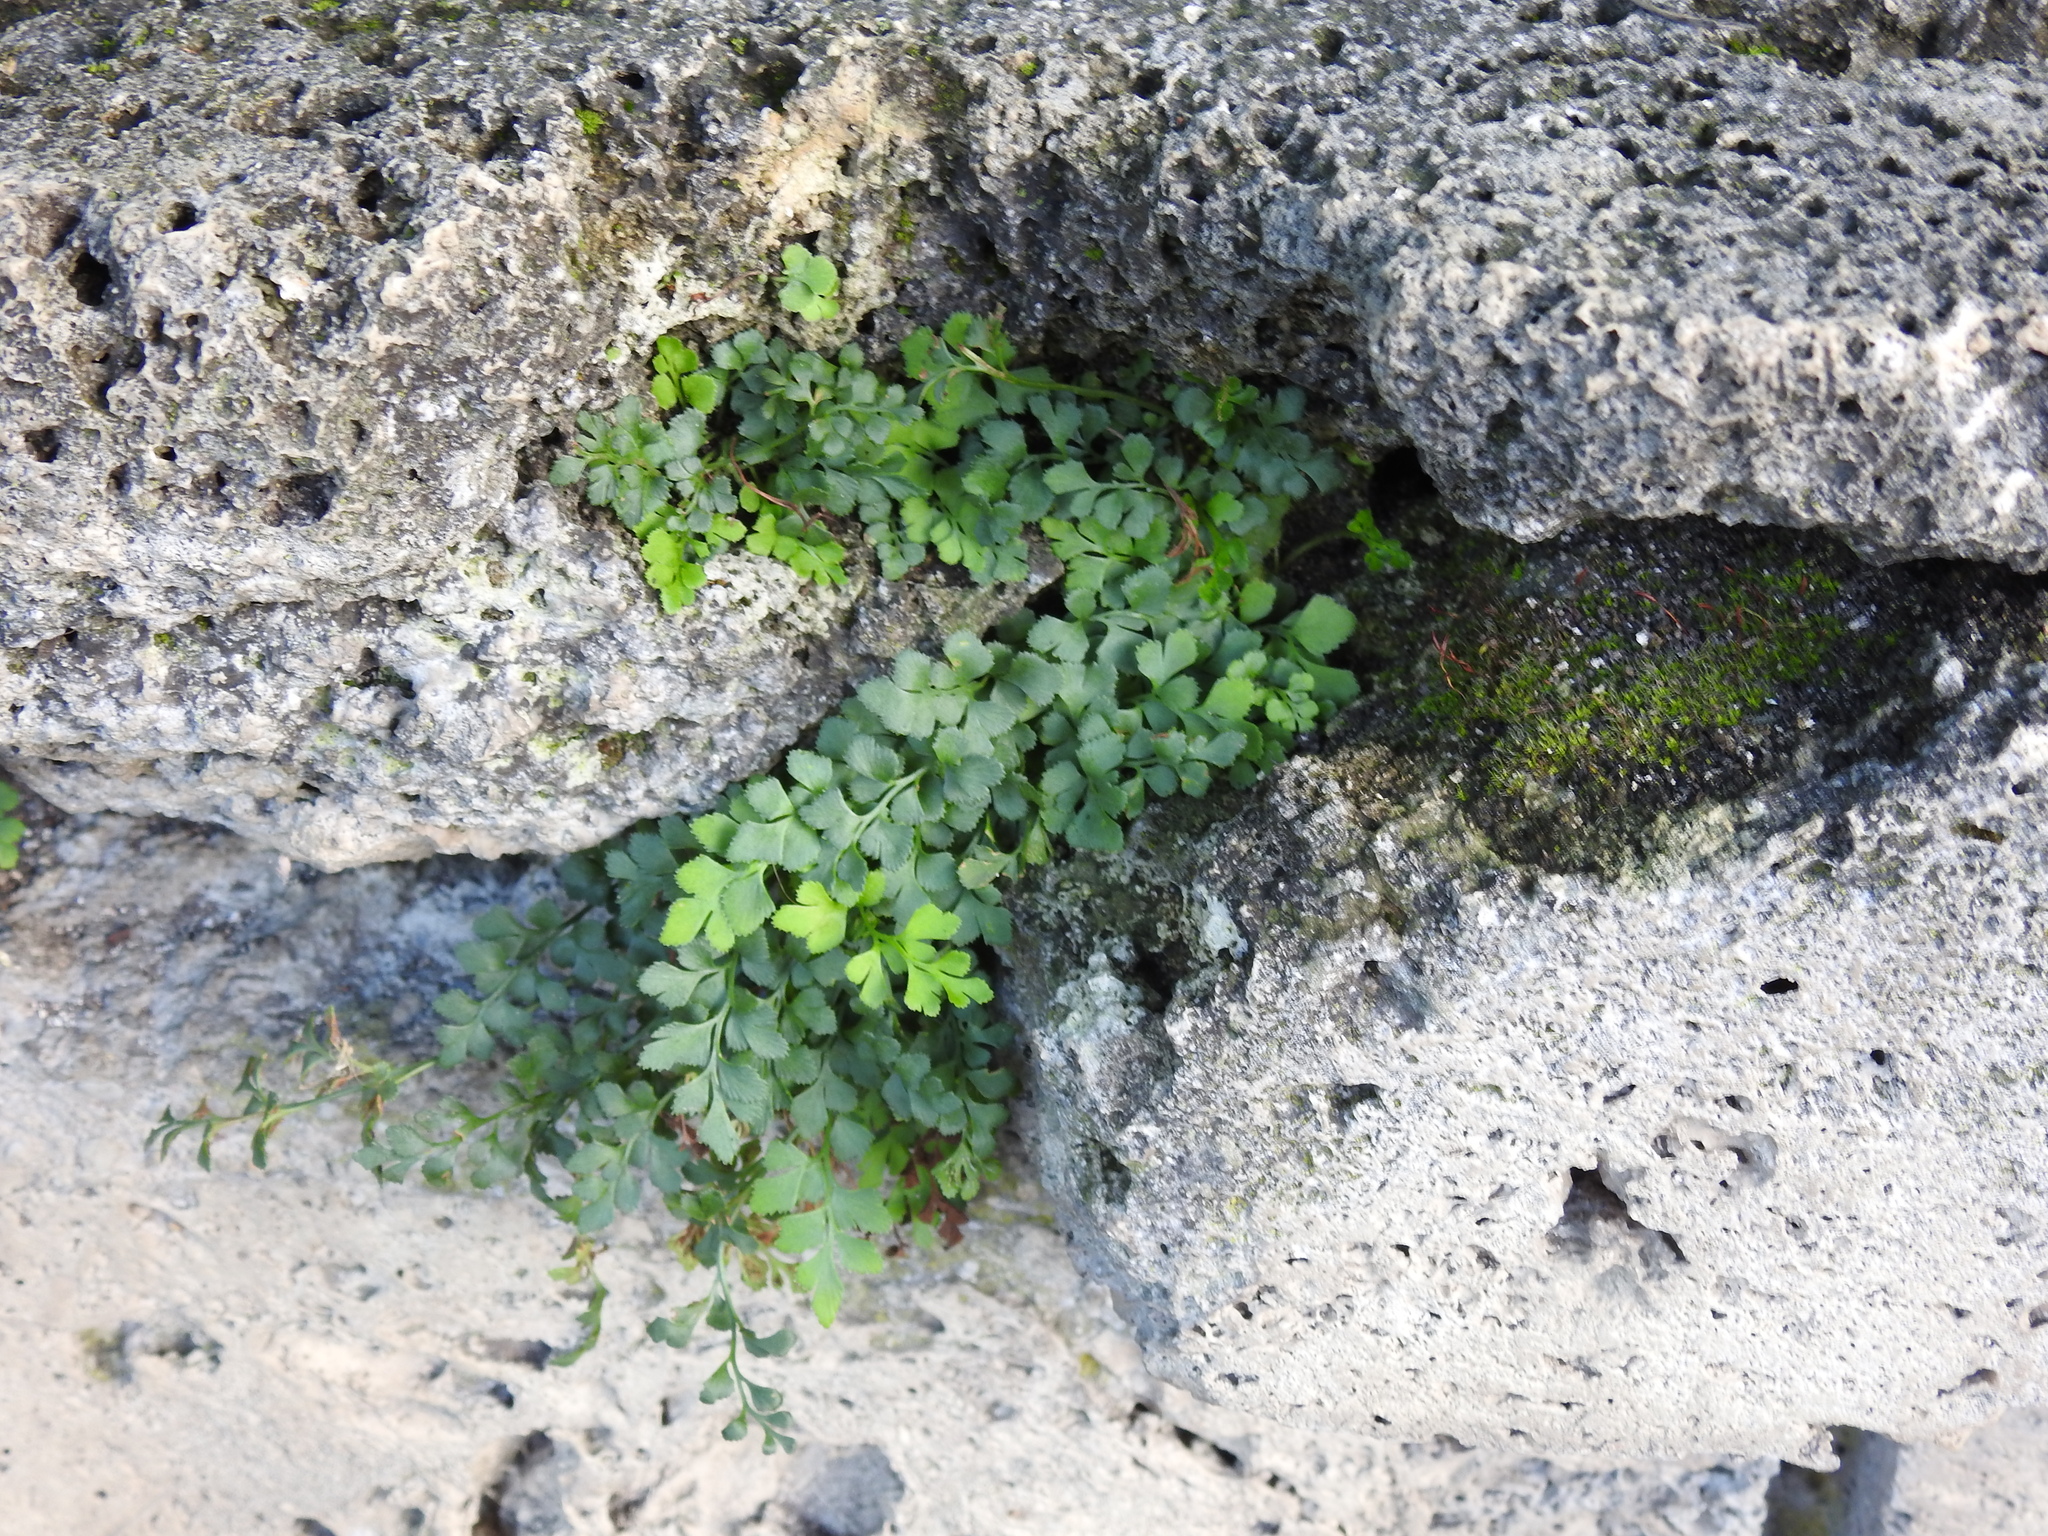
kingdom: Plantae
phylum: Tracheophyta
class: Polypodiopsida
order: Polypodiales
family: Aspleniaceae
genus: Asplenium
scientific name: Asplenium ruta-muraria
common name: Wall-rue
